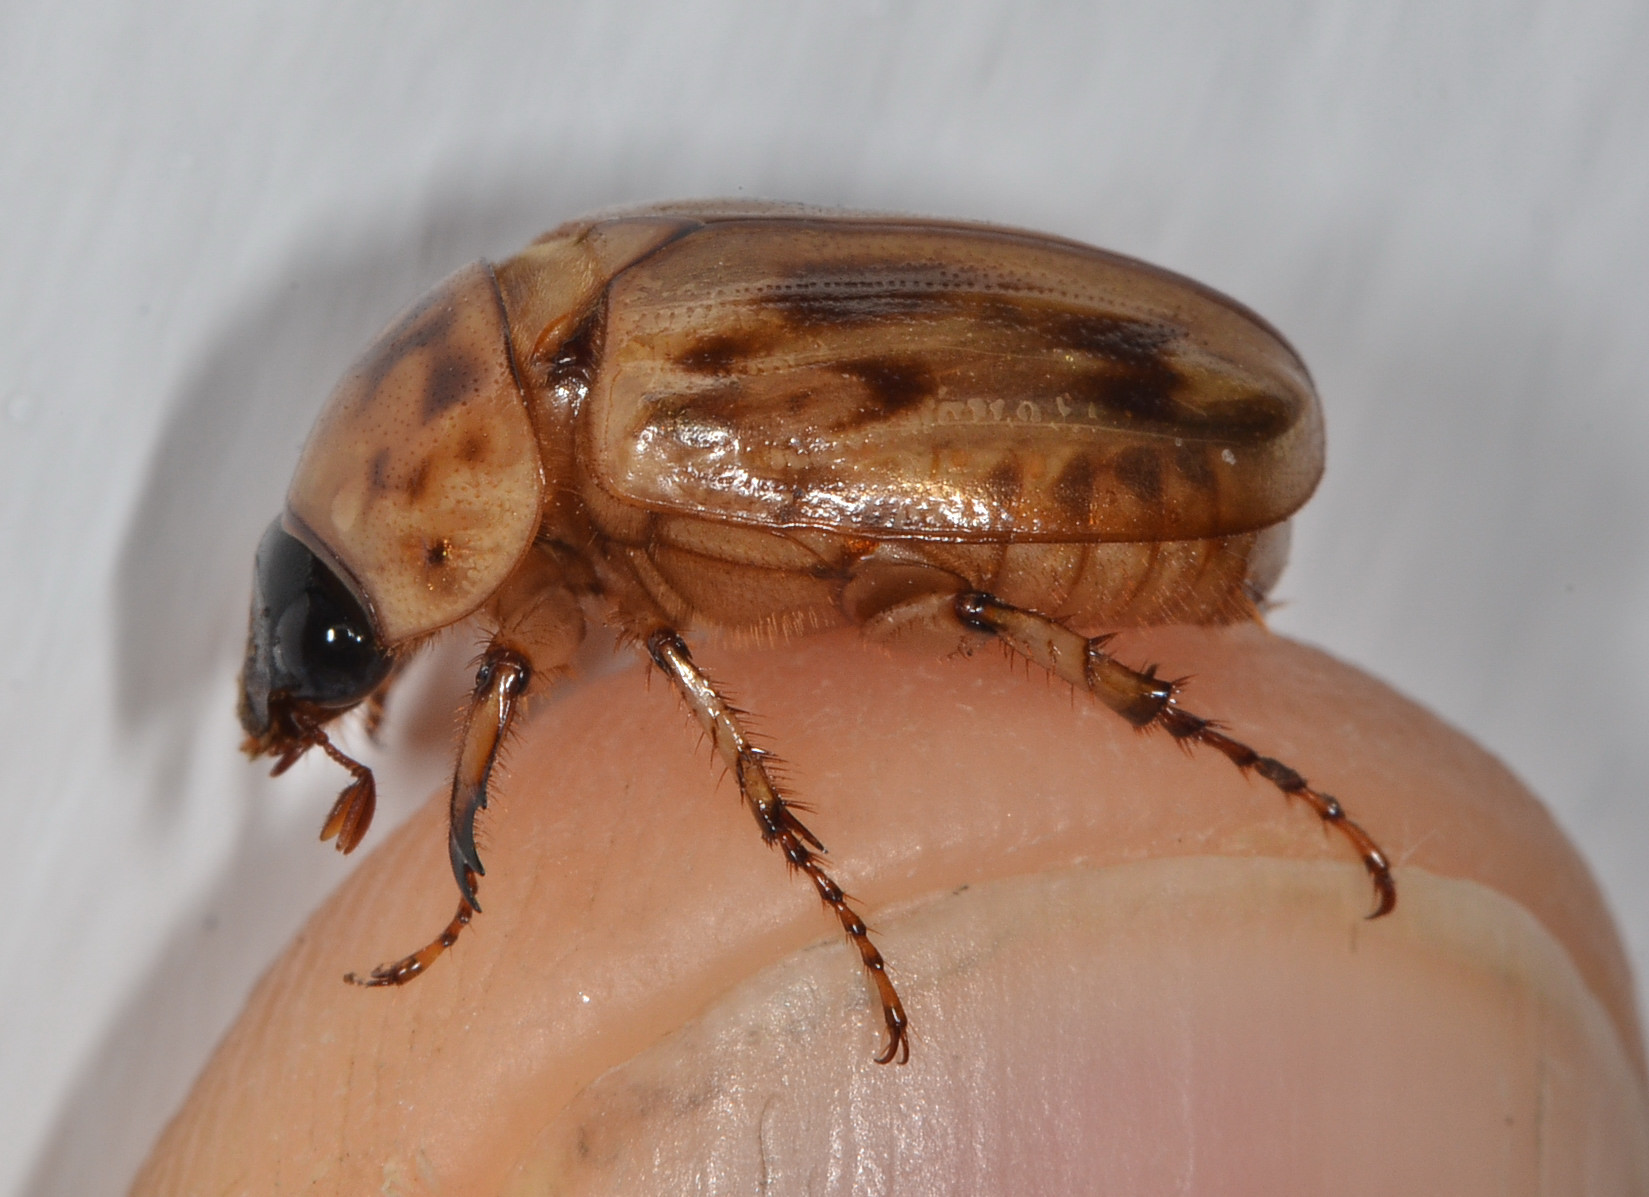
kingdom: Animalia
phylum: Arthropoda
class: Insecta
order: Coleoptera
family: Scarabaeidae
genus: Cyclocephala
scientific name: Cyclocephala lunulata
